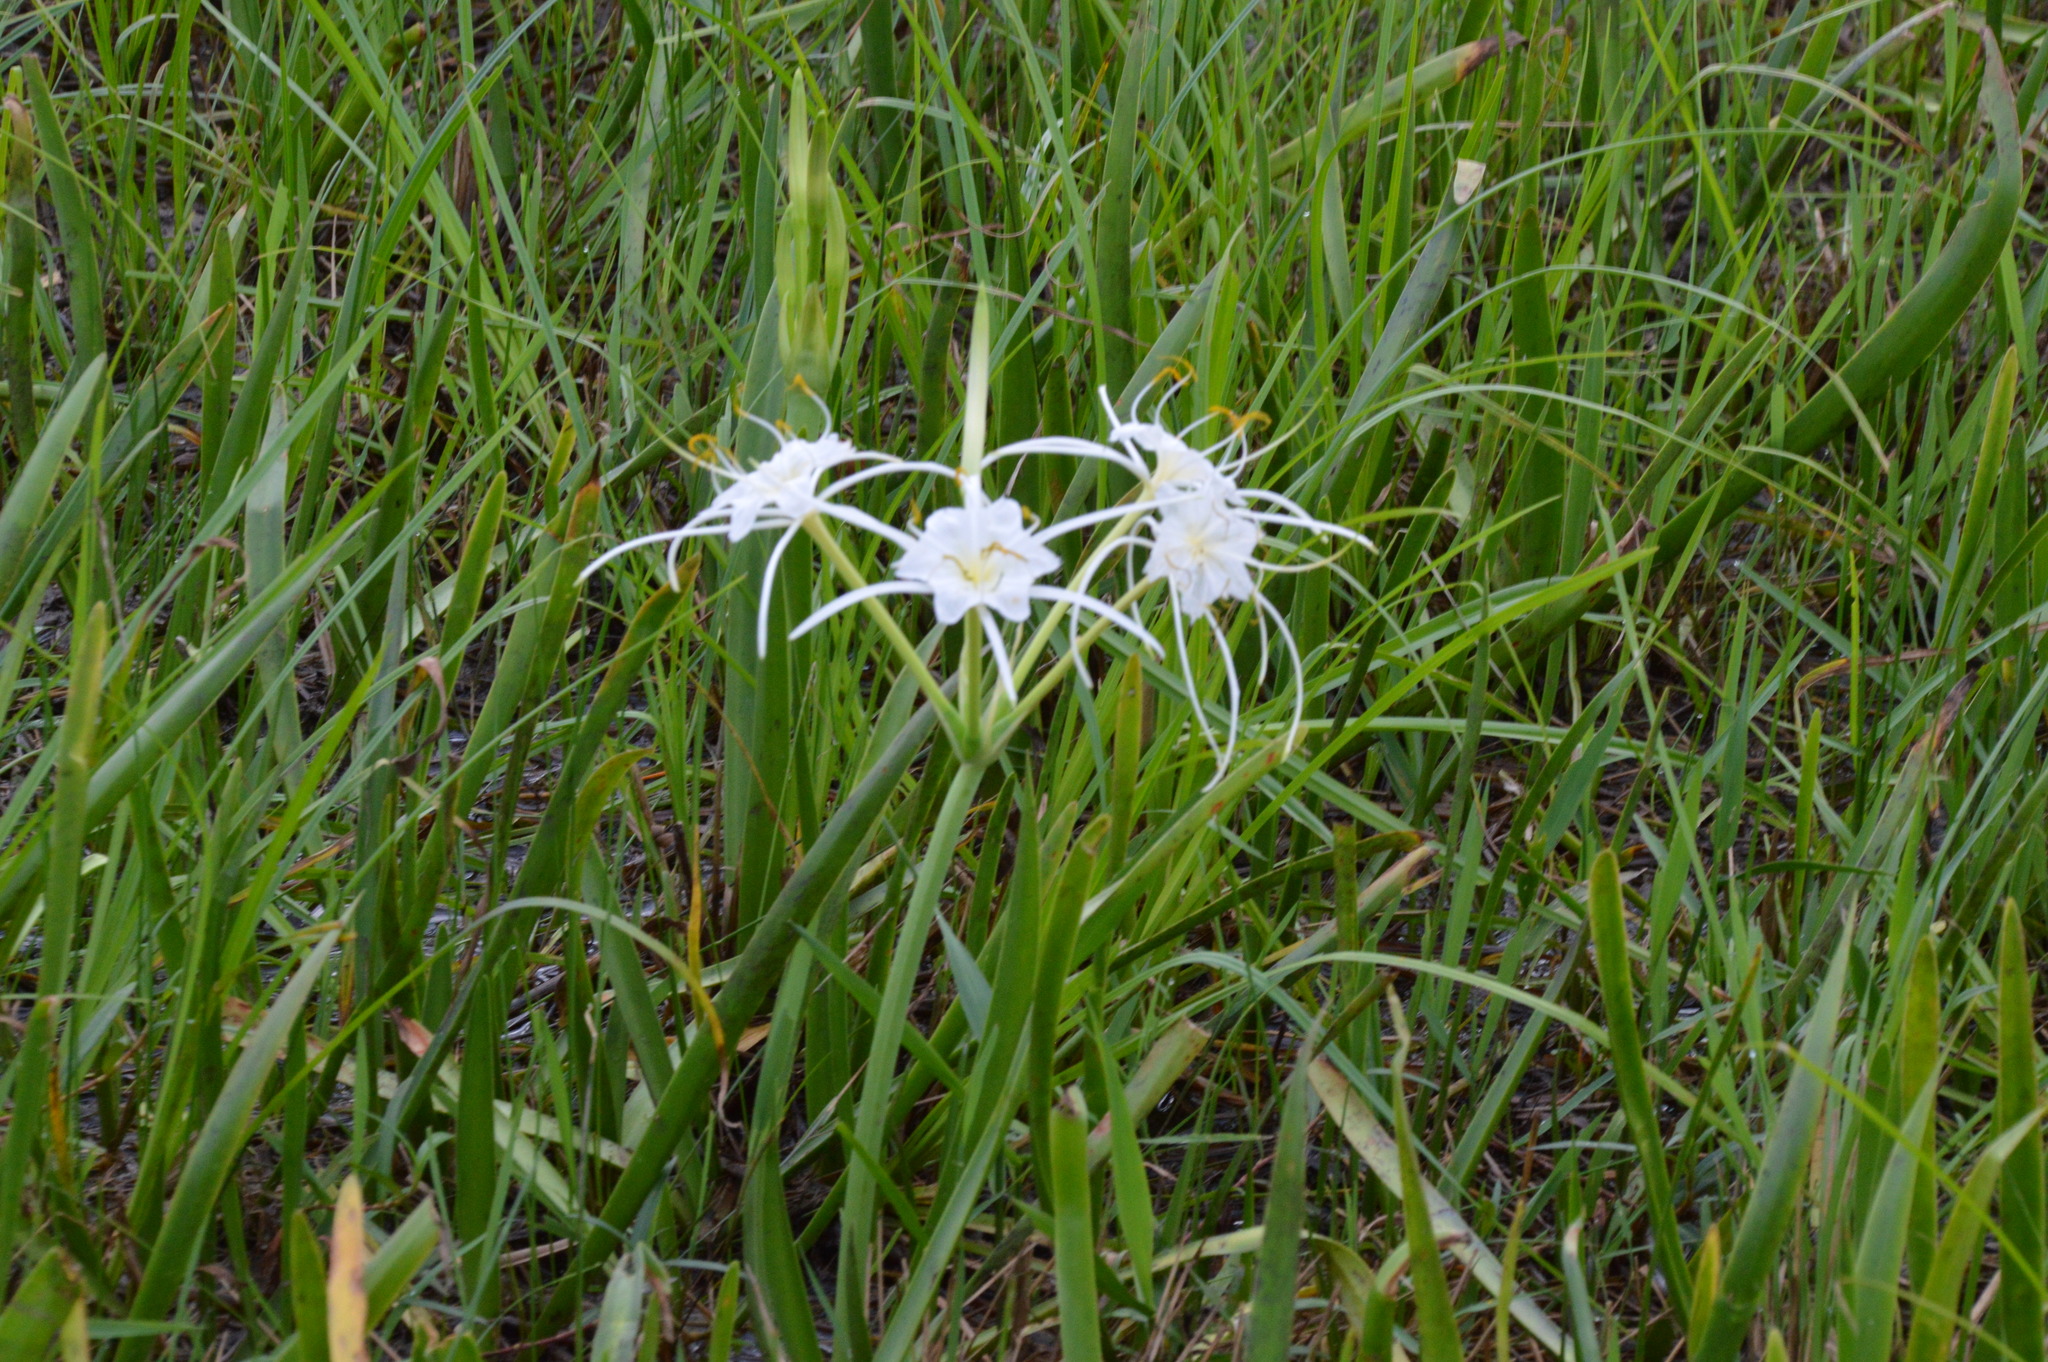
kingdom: Plantae
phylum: Tracheophyta
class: Liliopsida
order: Asparagales
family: Amaryllidaceae
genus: Hymenocallis
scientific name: Hymenocallis liriosme
